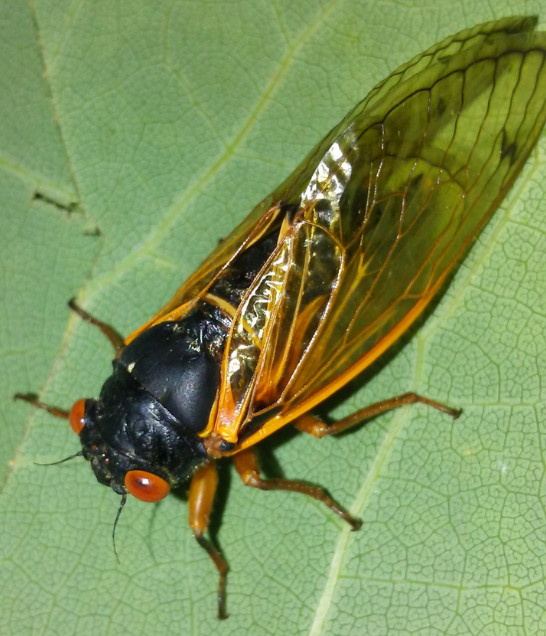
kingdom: Animalia
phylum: Arthropoda
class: Insecta
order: Hemiptera
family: Cicadidae
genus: Magicicada
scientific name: Magicicada
